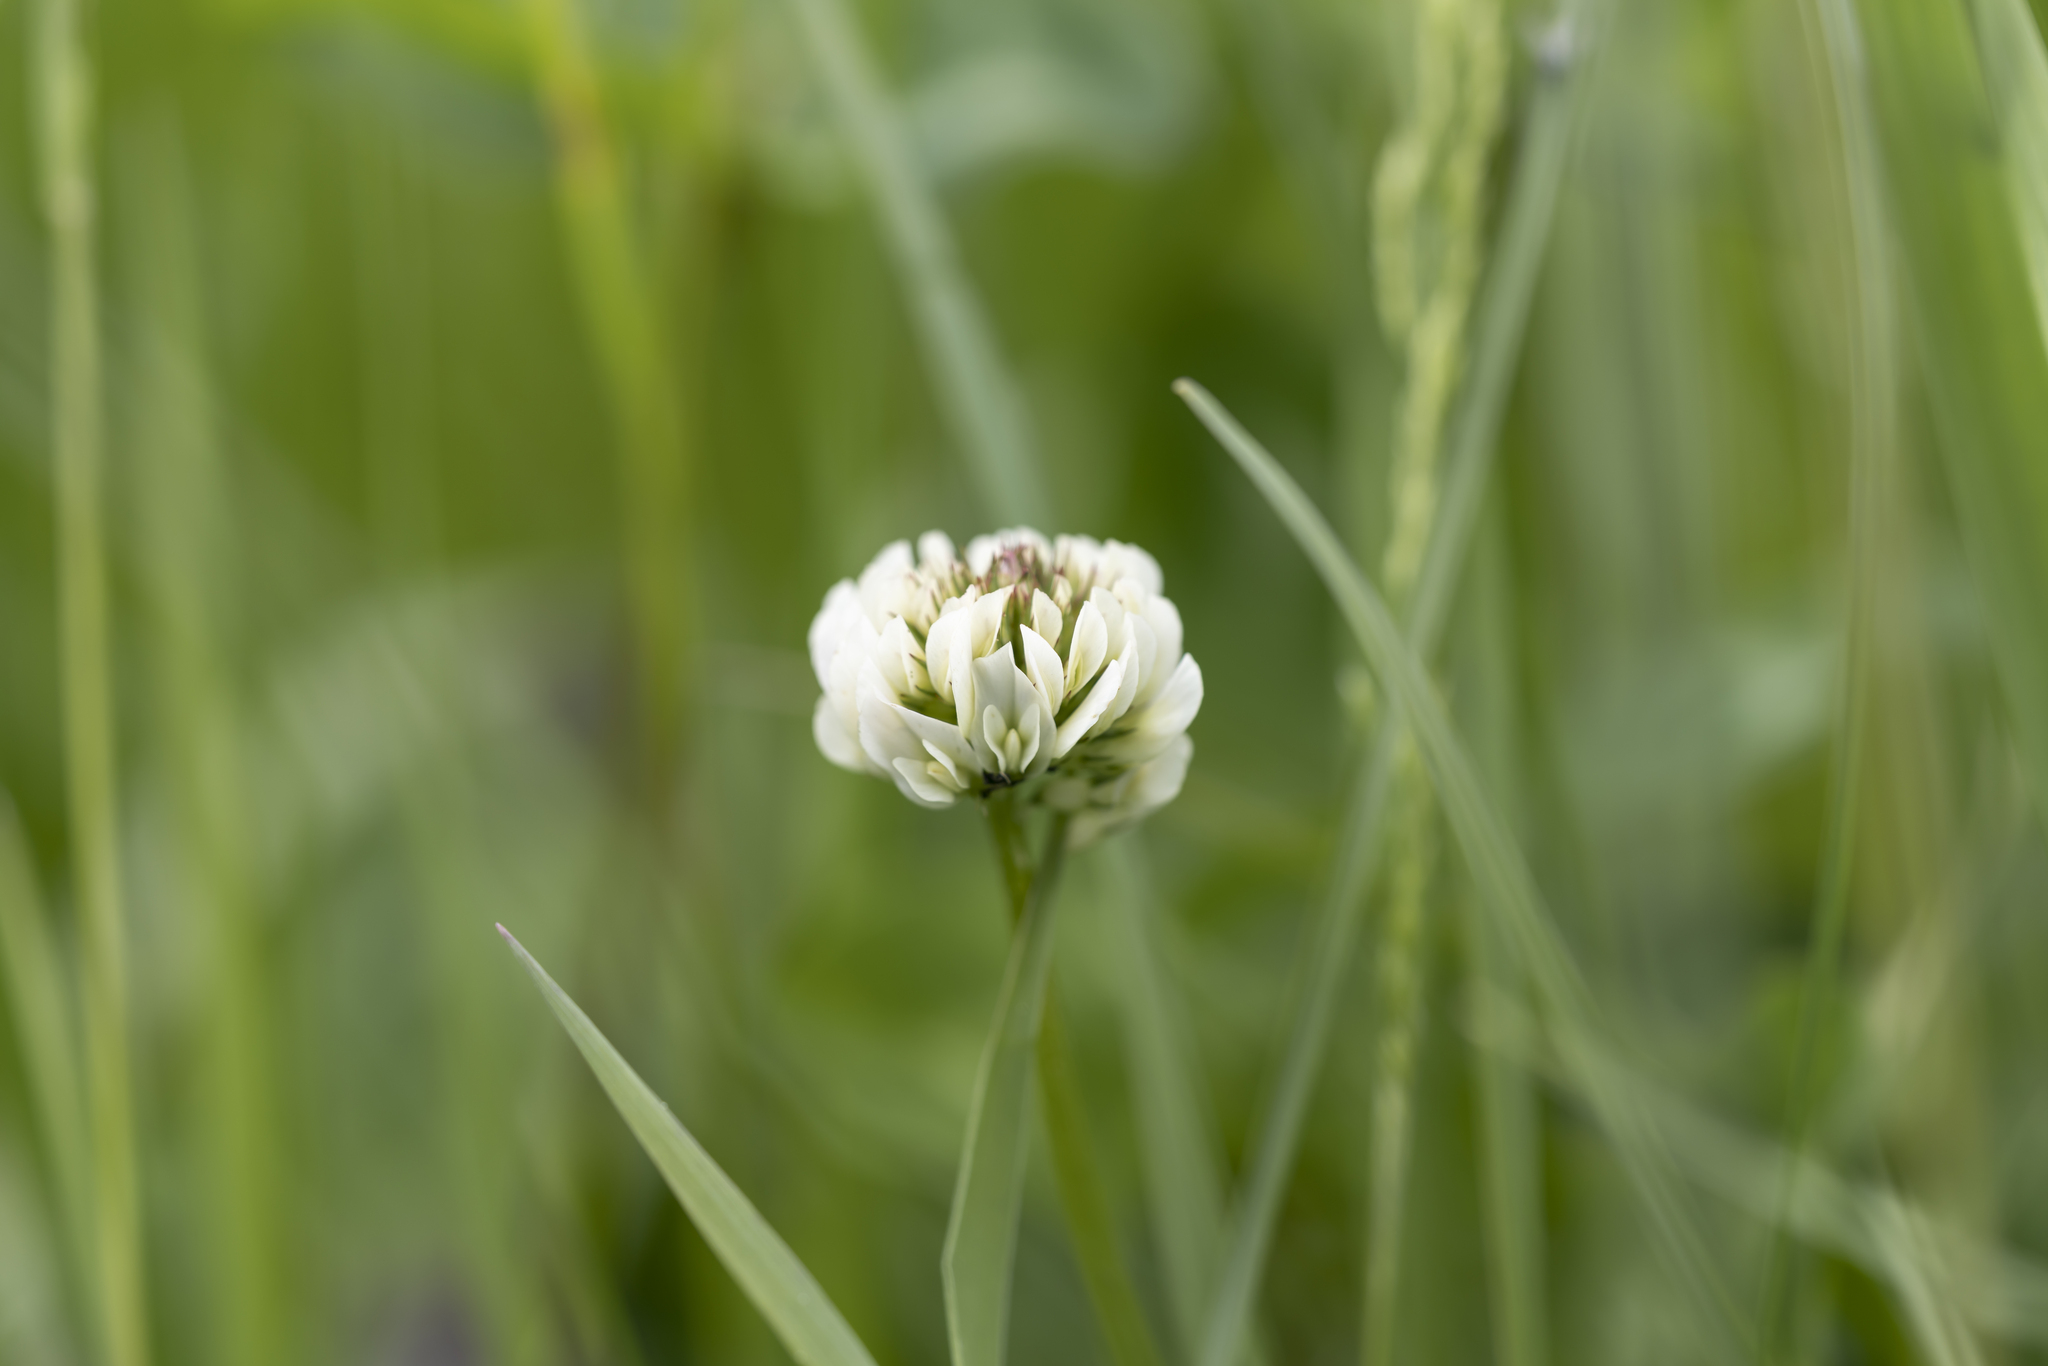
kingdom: Plantae
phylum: Tracheophyta
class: Magnoliopsida
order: Fabales
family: Fabaceae
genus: Trifolium
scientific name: Trifolium repens
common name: White clover
